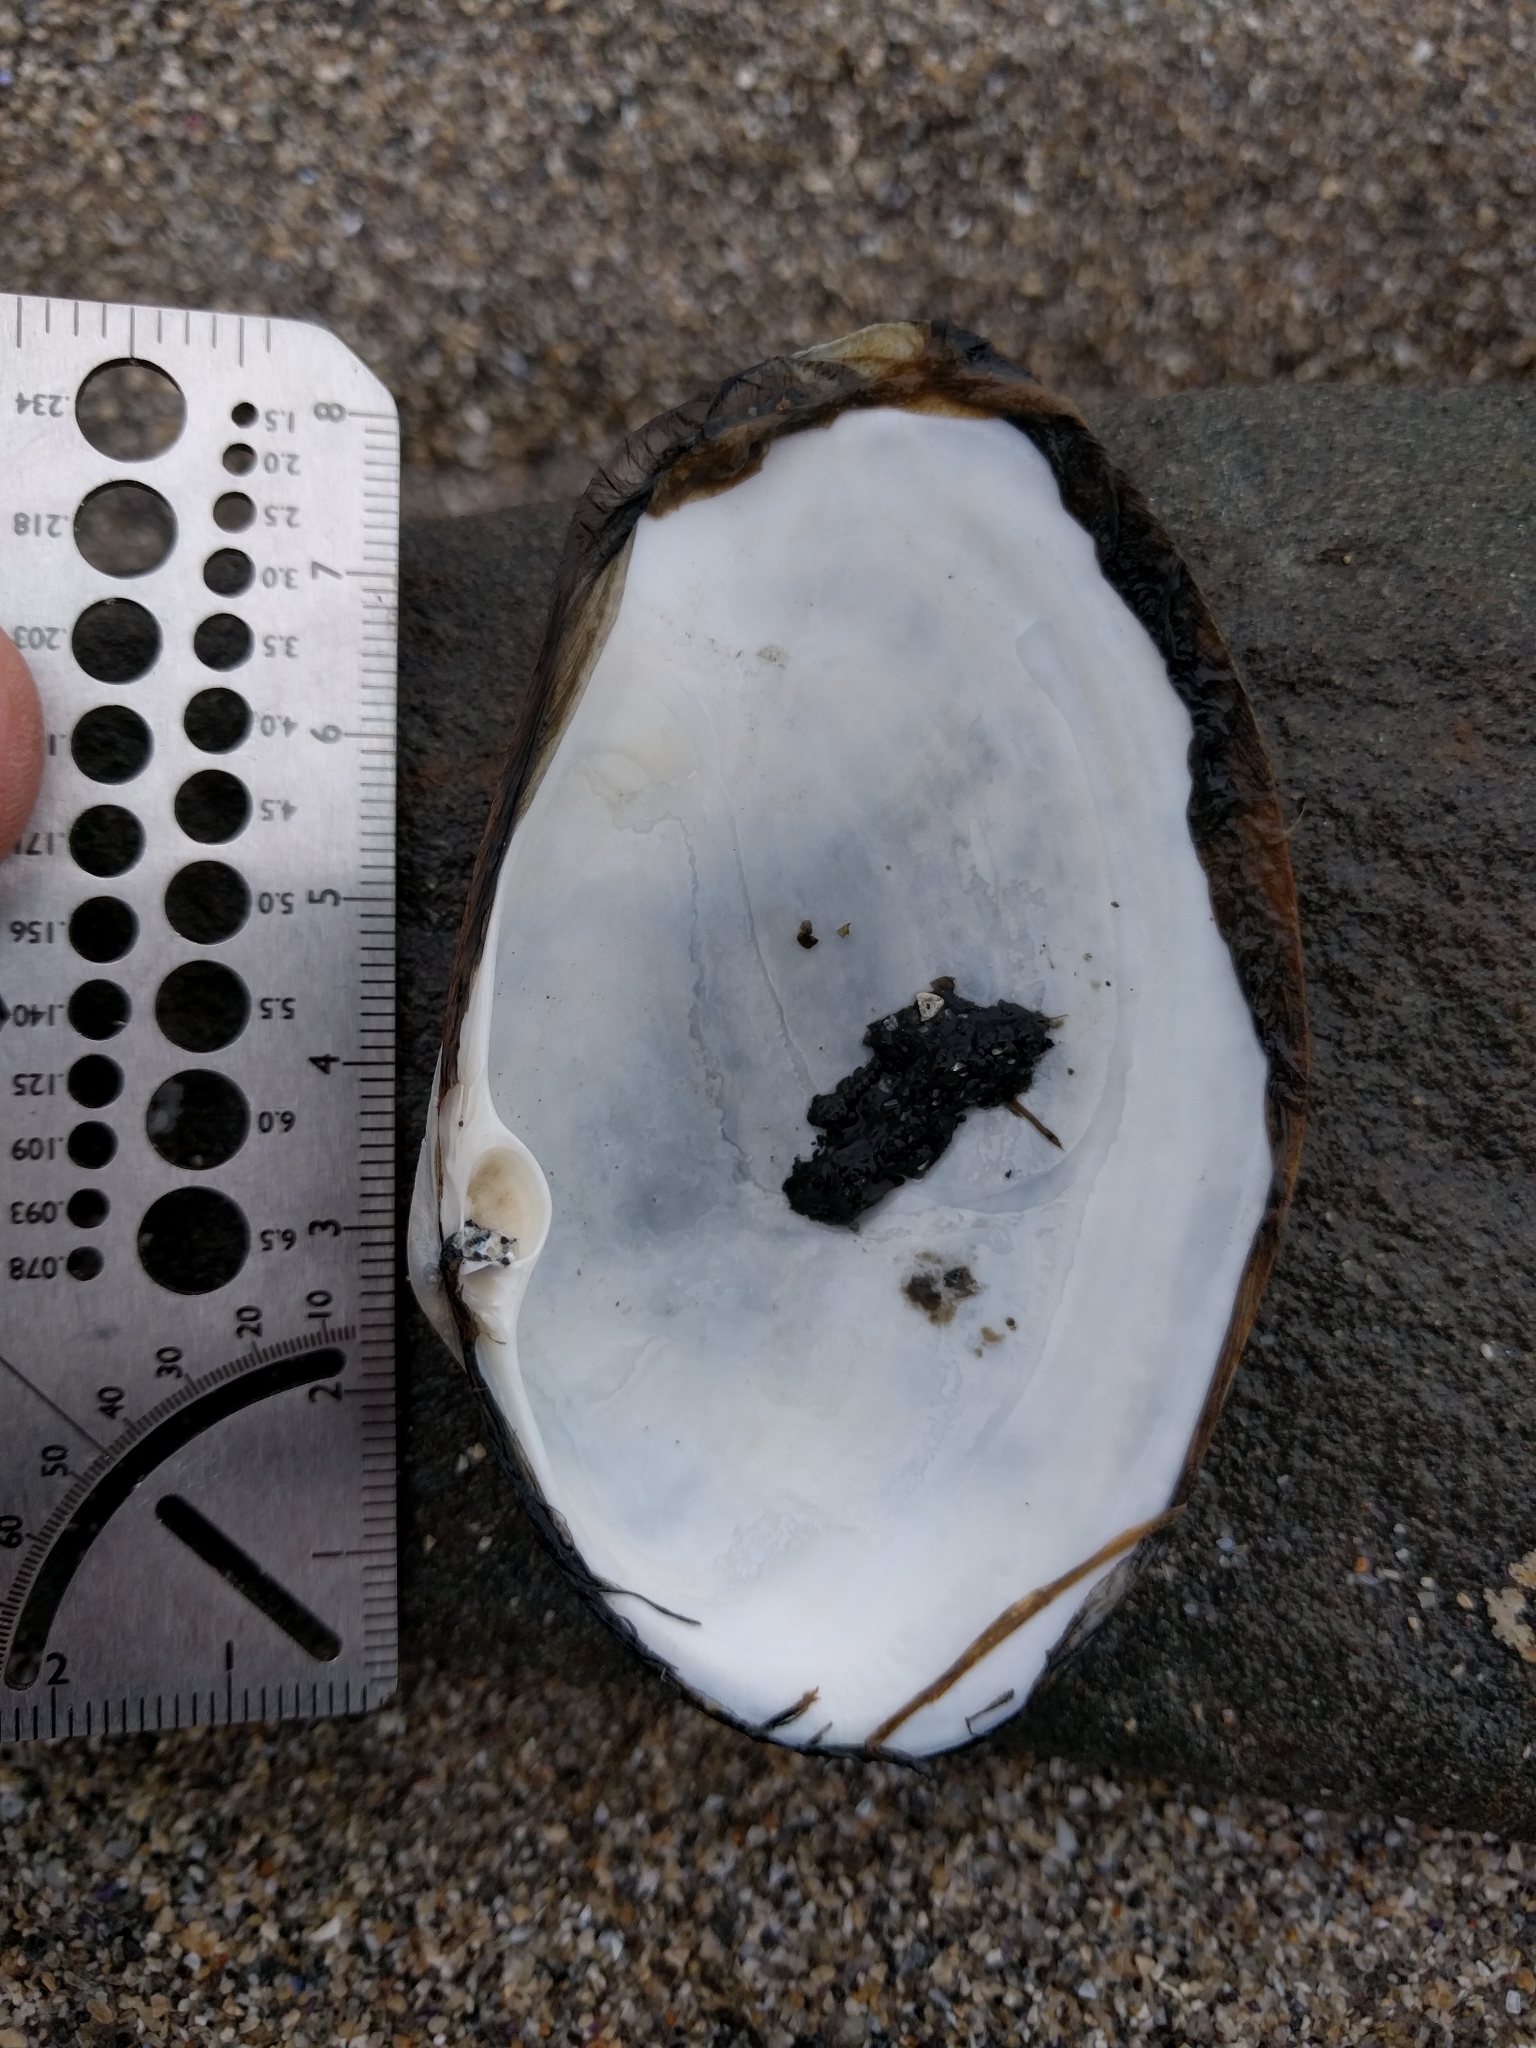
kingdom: Animalia
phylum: Mollusca
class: Bivalvia
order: Venerida
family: Mactridae
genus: Tresus
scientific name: Tresus nuttallii
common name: Pacific gaper clam
